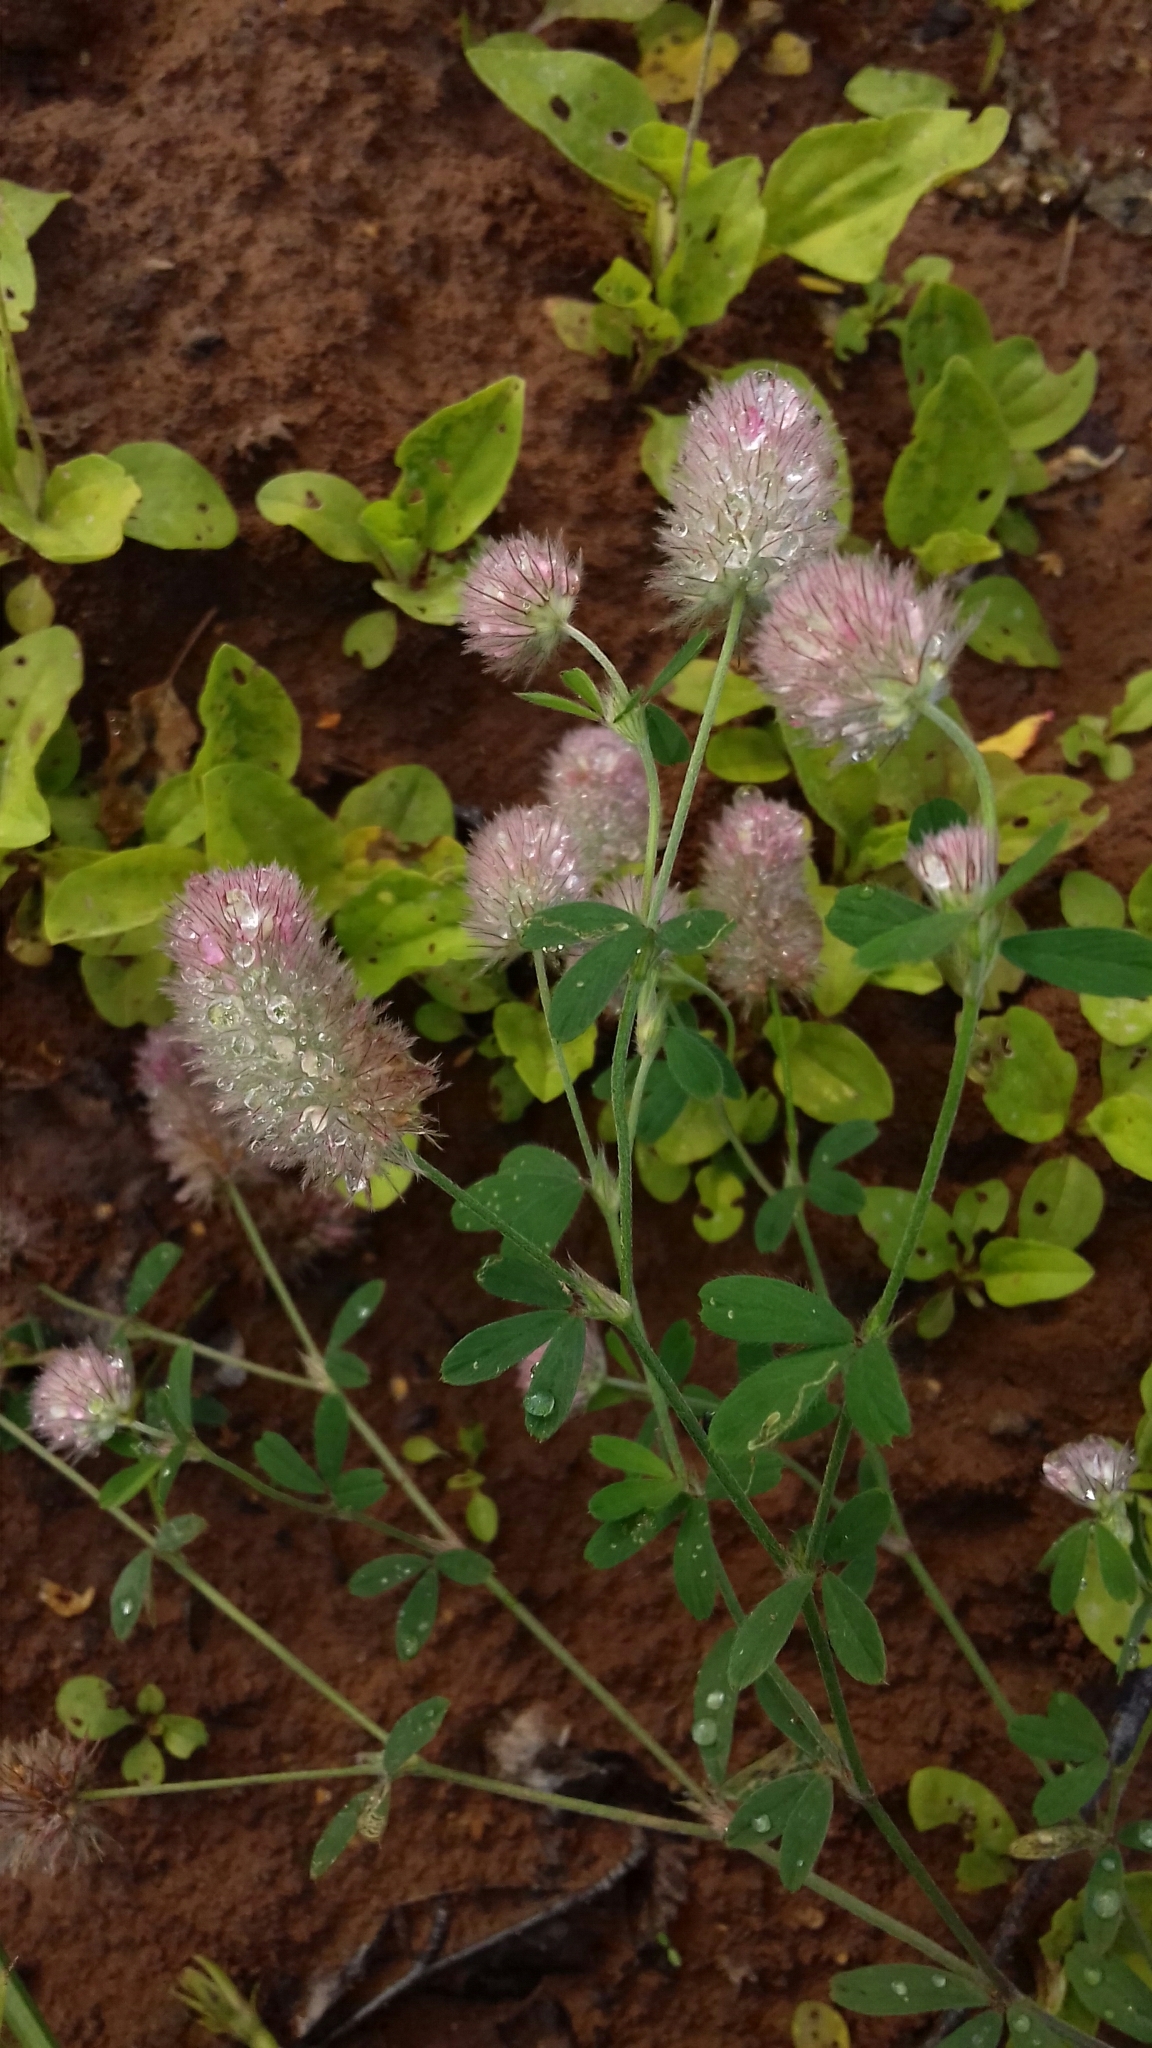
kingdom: Plantae
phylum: Tracheophyta
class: Magnoliopsida
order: Fabales
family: Fabaceae
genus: Trifolium
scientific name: Trifolium arvense
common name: Hare's-foot clover
